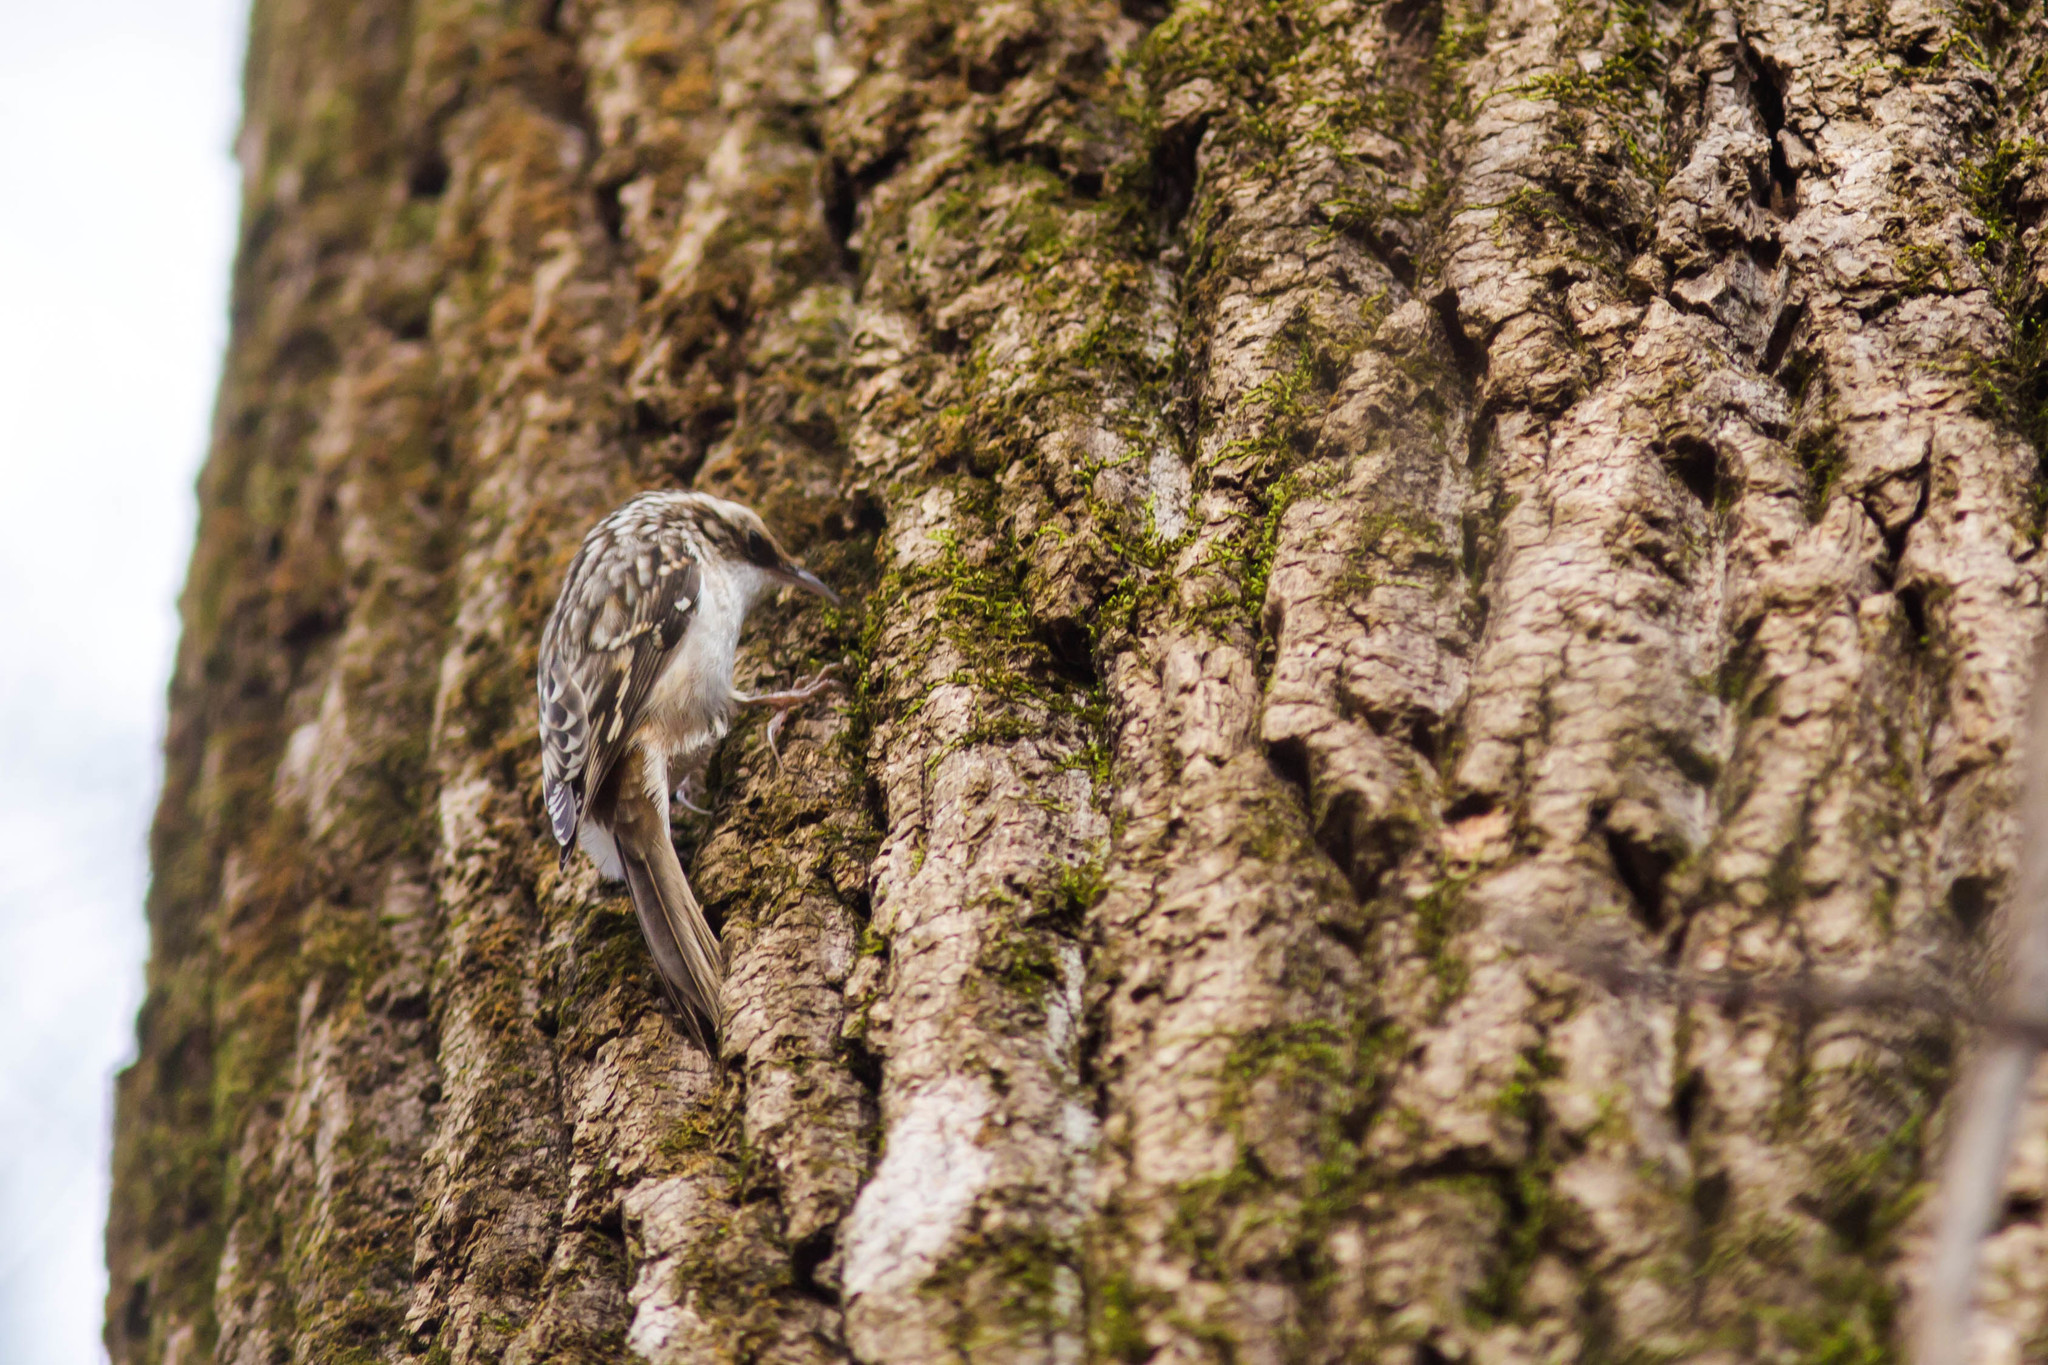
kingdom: Animalia
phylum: Chordata
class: Aves
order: Passeriformes
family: Certhiidae
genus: Certhia
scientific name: Certhia americana
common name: Brown creeper
